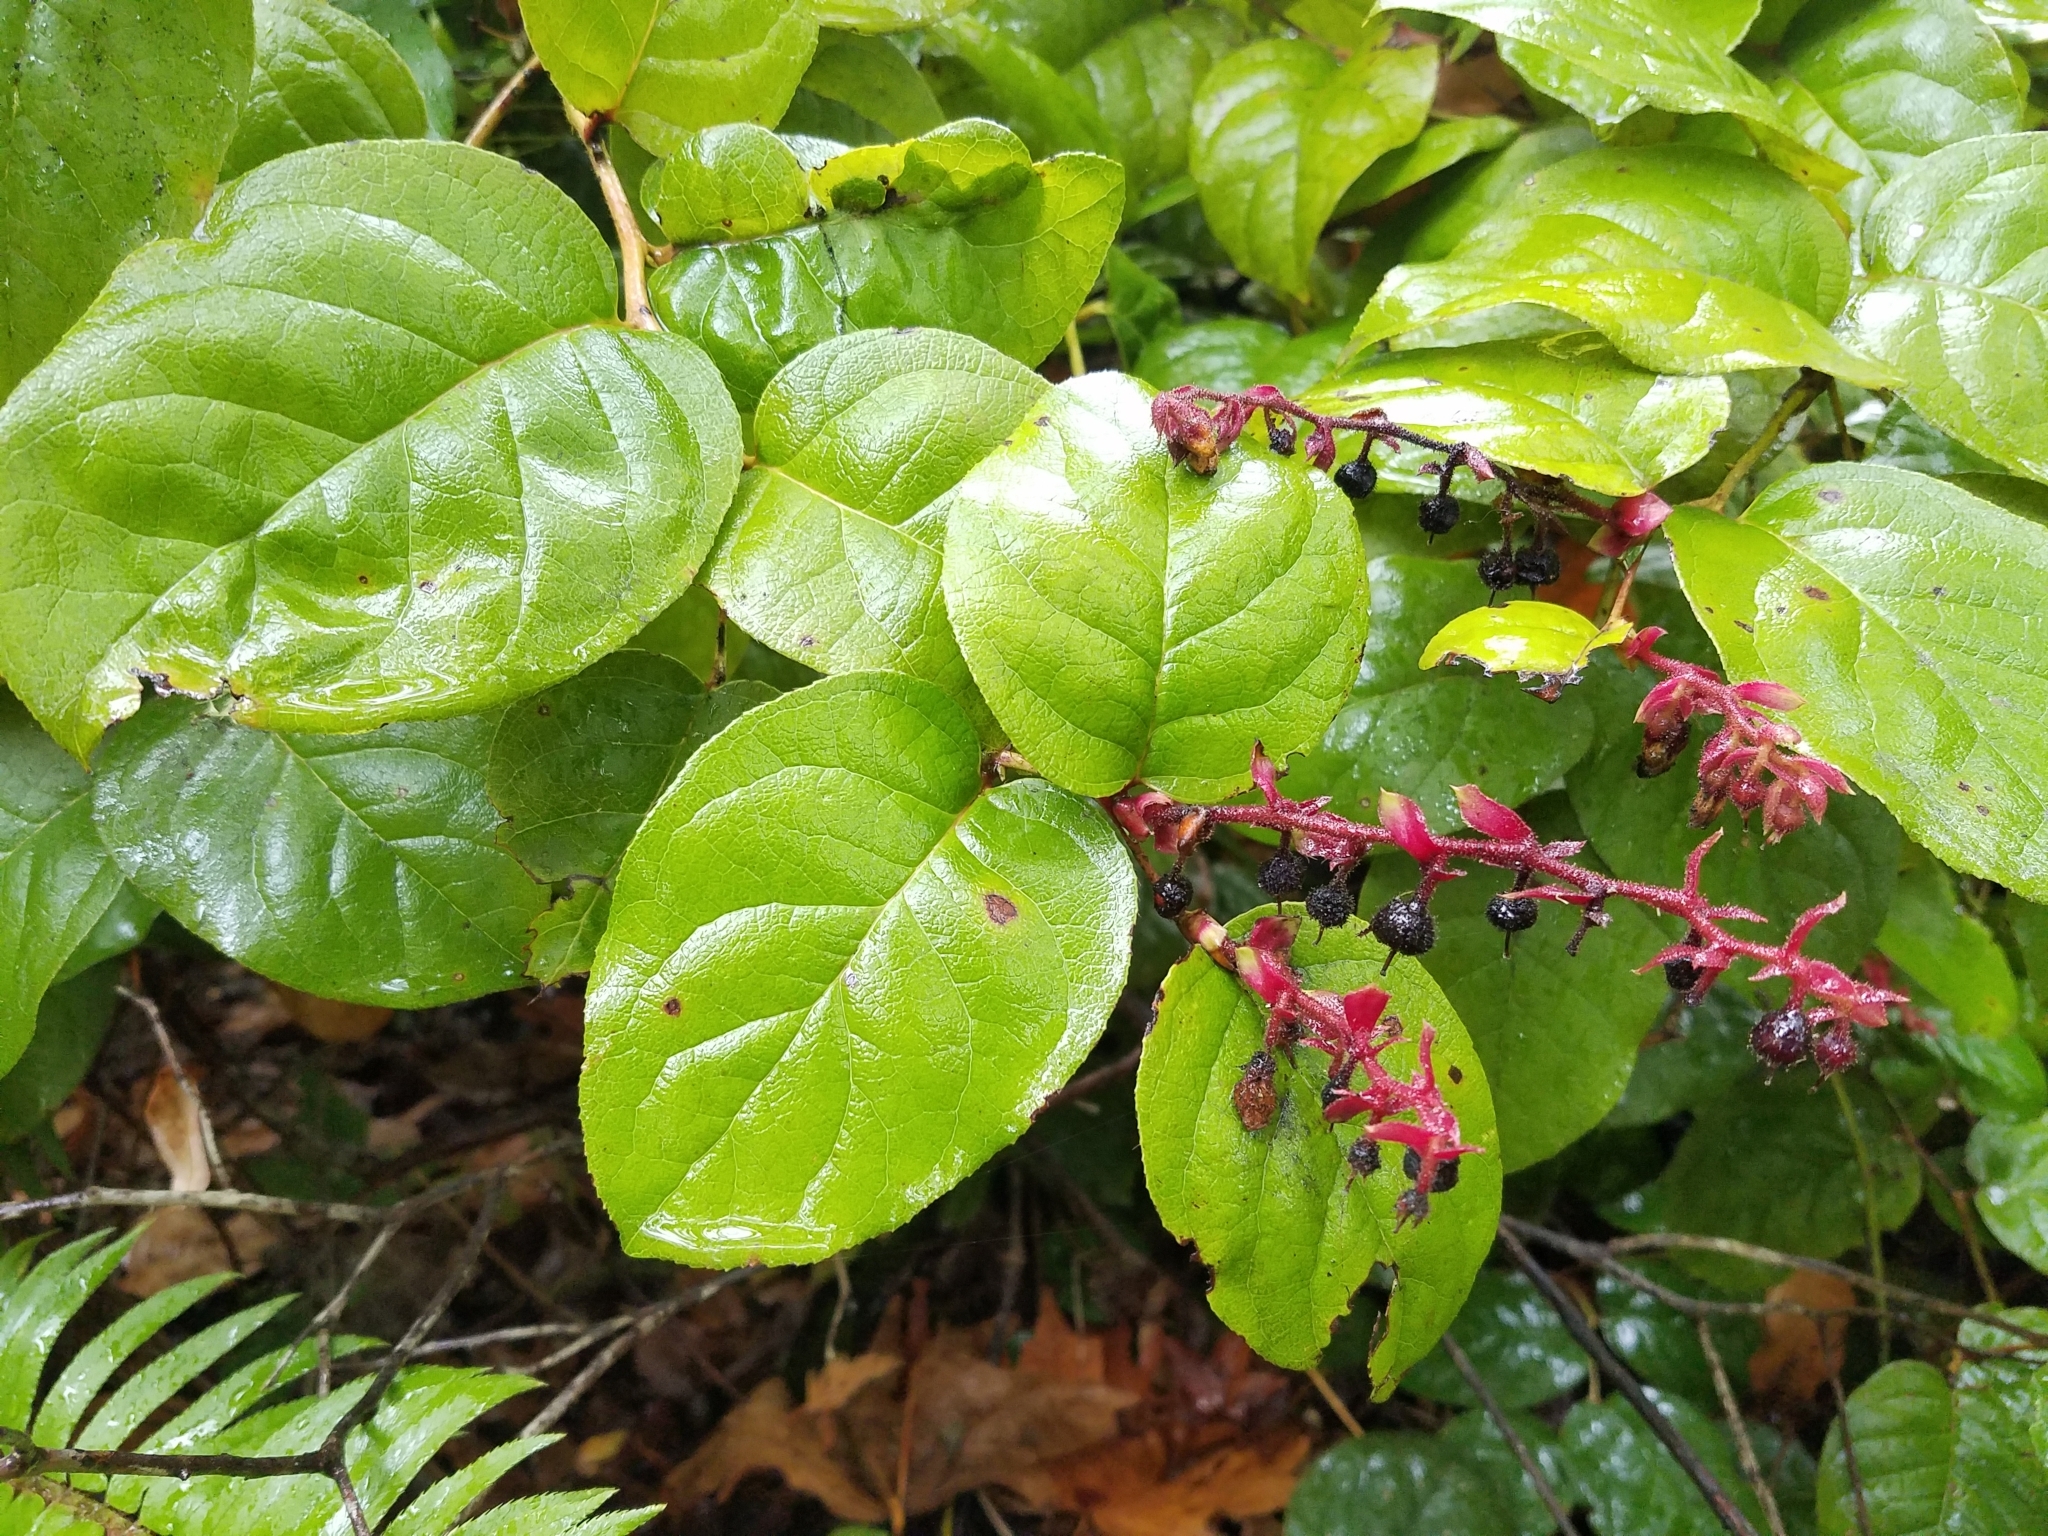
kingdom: Plantae
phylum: Tracheophyta
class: Magnoliopsida
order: Ericales
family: Ericaceae
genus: Gaultheria
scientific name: Gaultheria shallon
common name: Shallon
